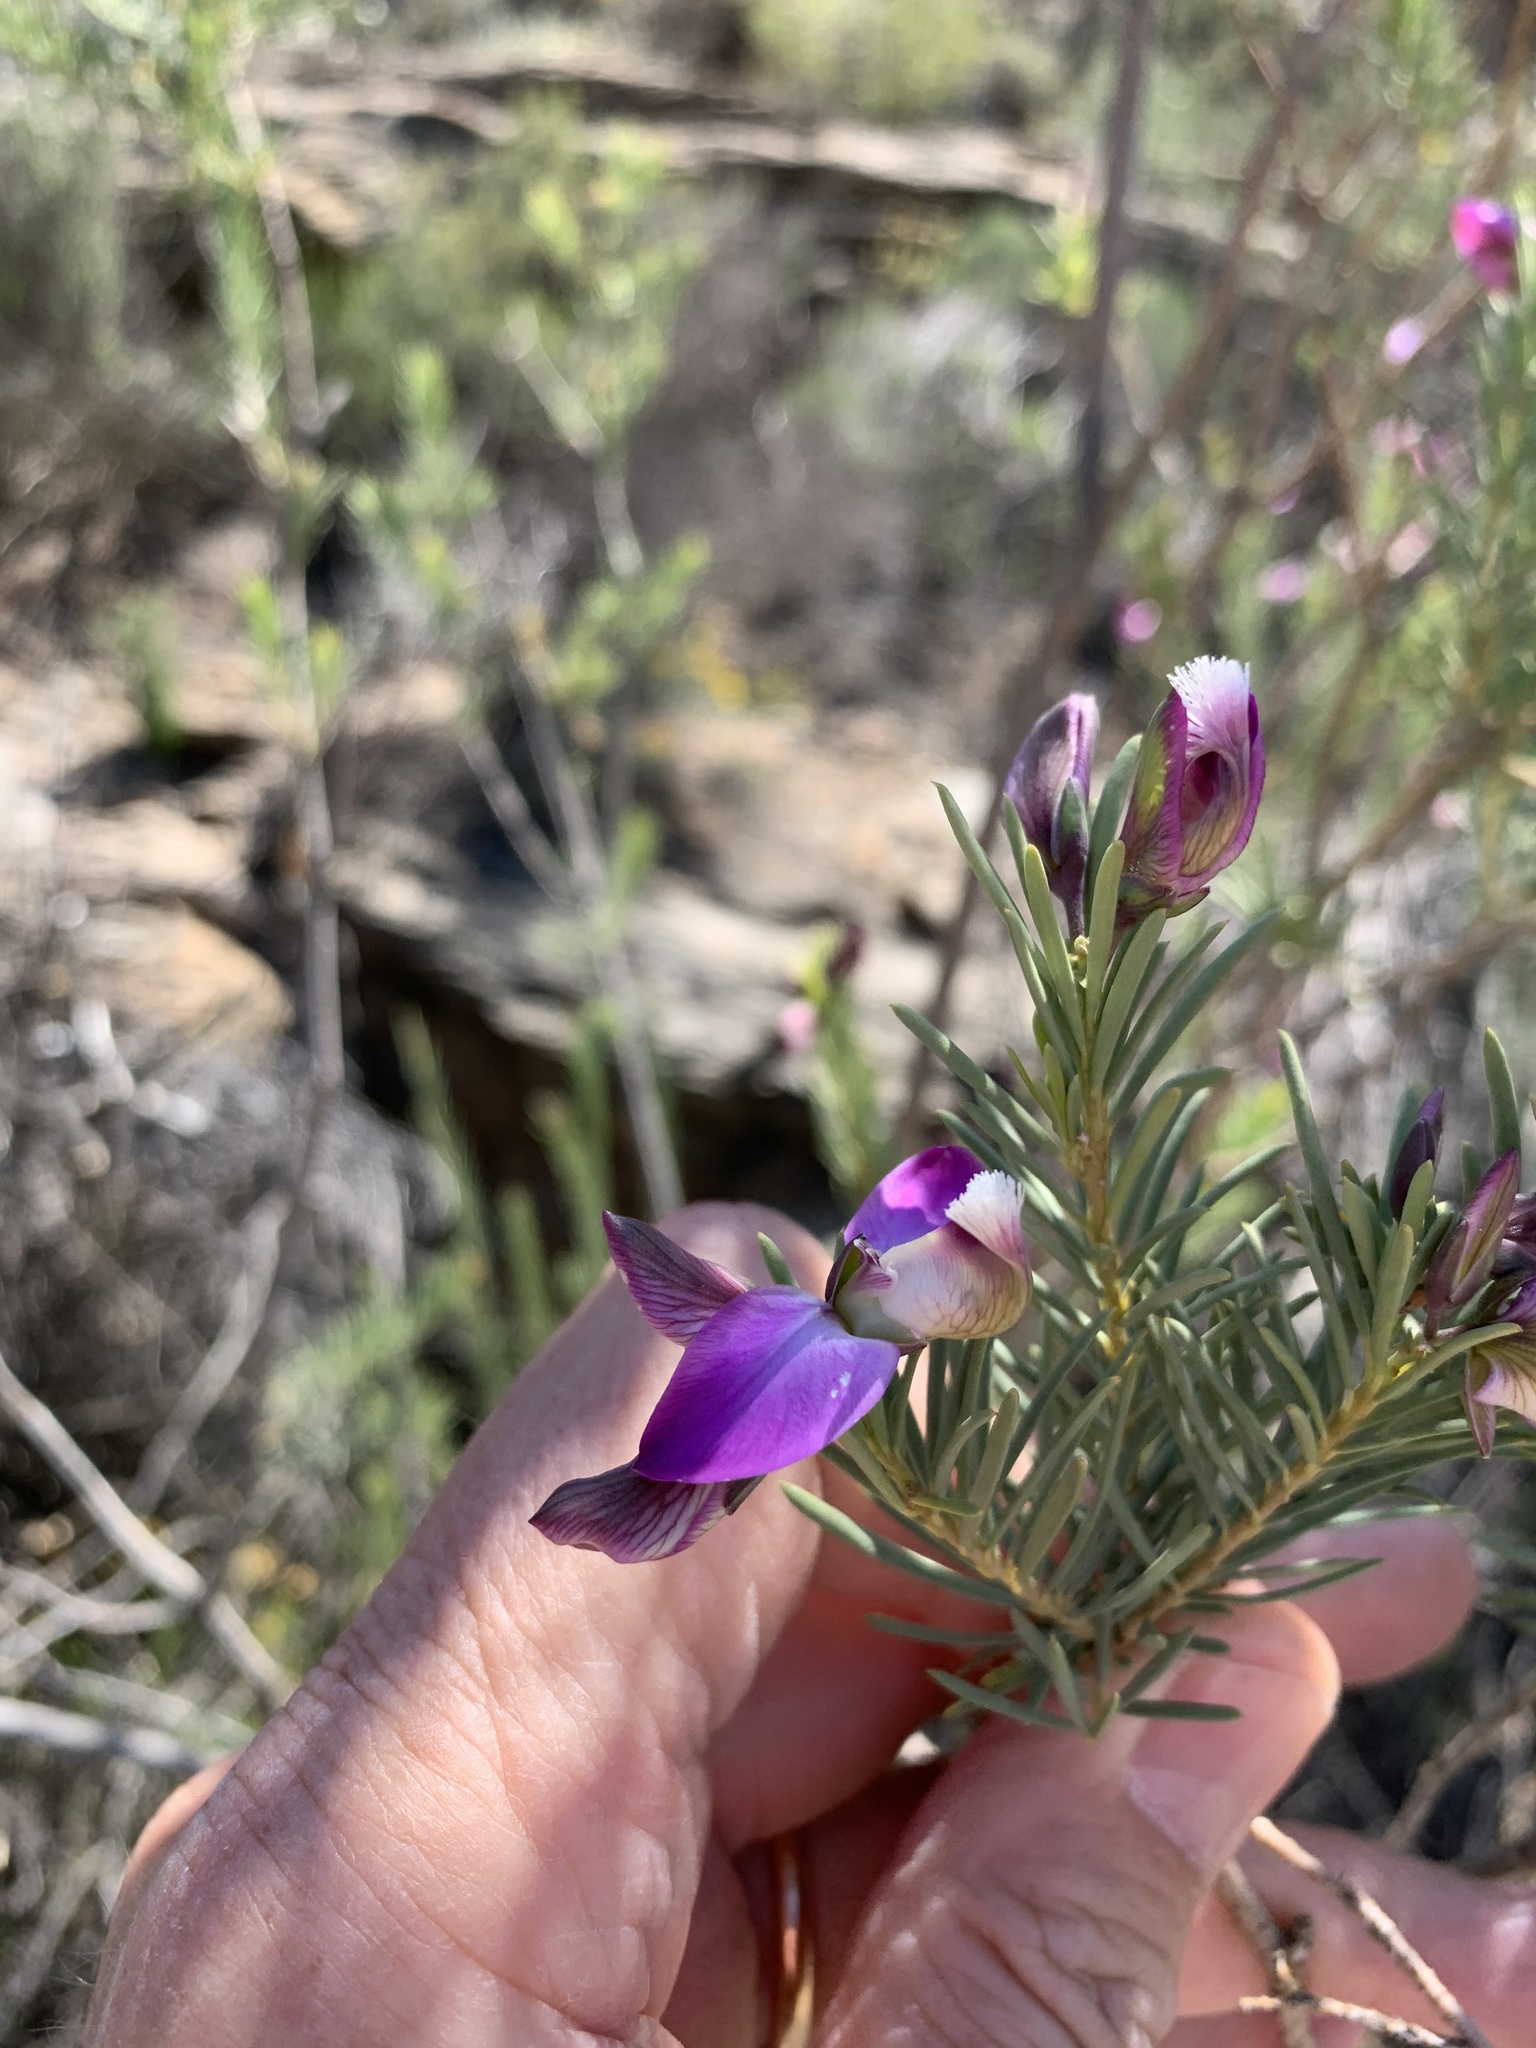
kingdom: Plantae
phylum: Tracheophyta
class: Magnoliopsida
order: Fabales
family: Polygalaceae
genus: Polygala
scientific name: Polygala myrtifolia
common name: Myrtle-leaf milkwort
